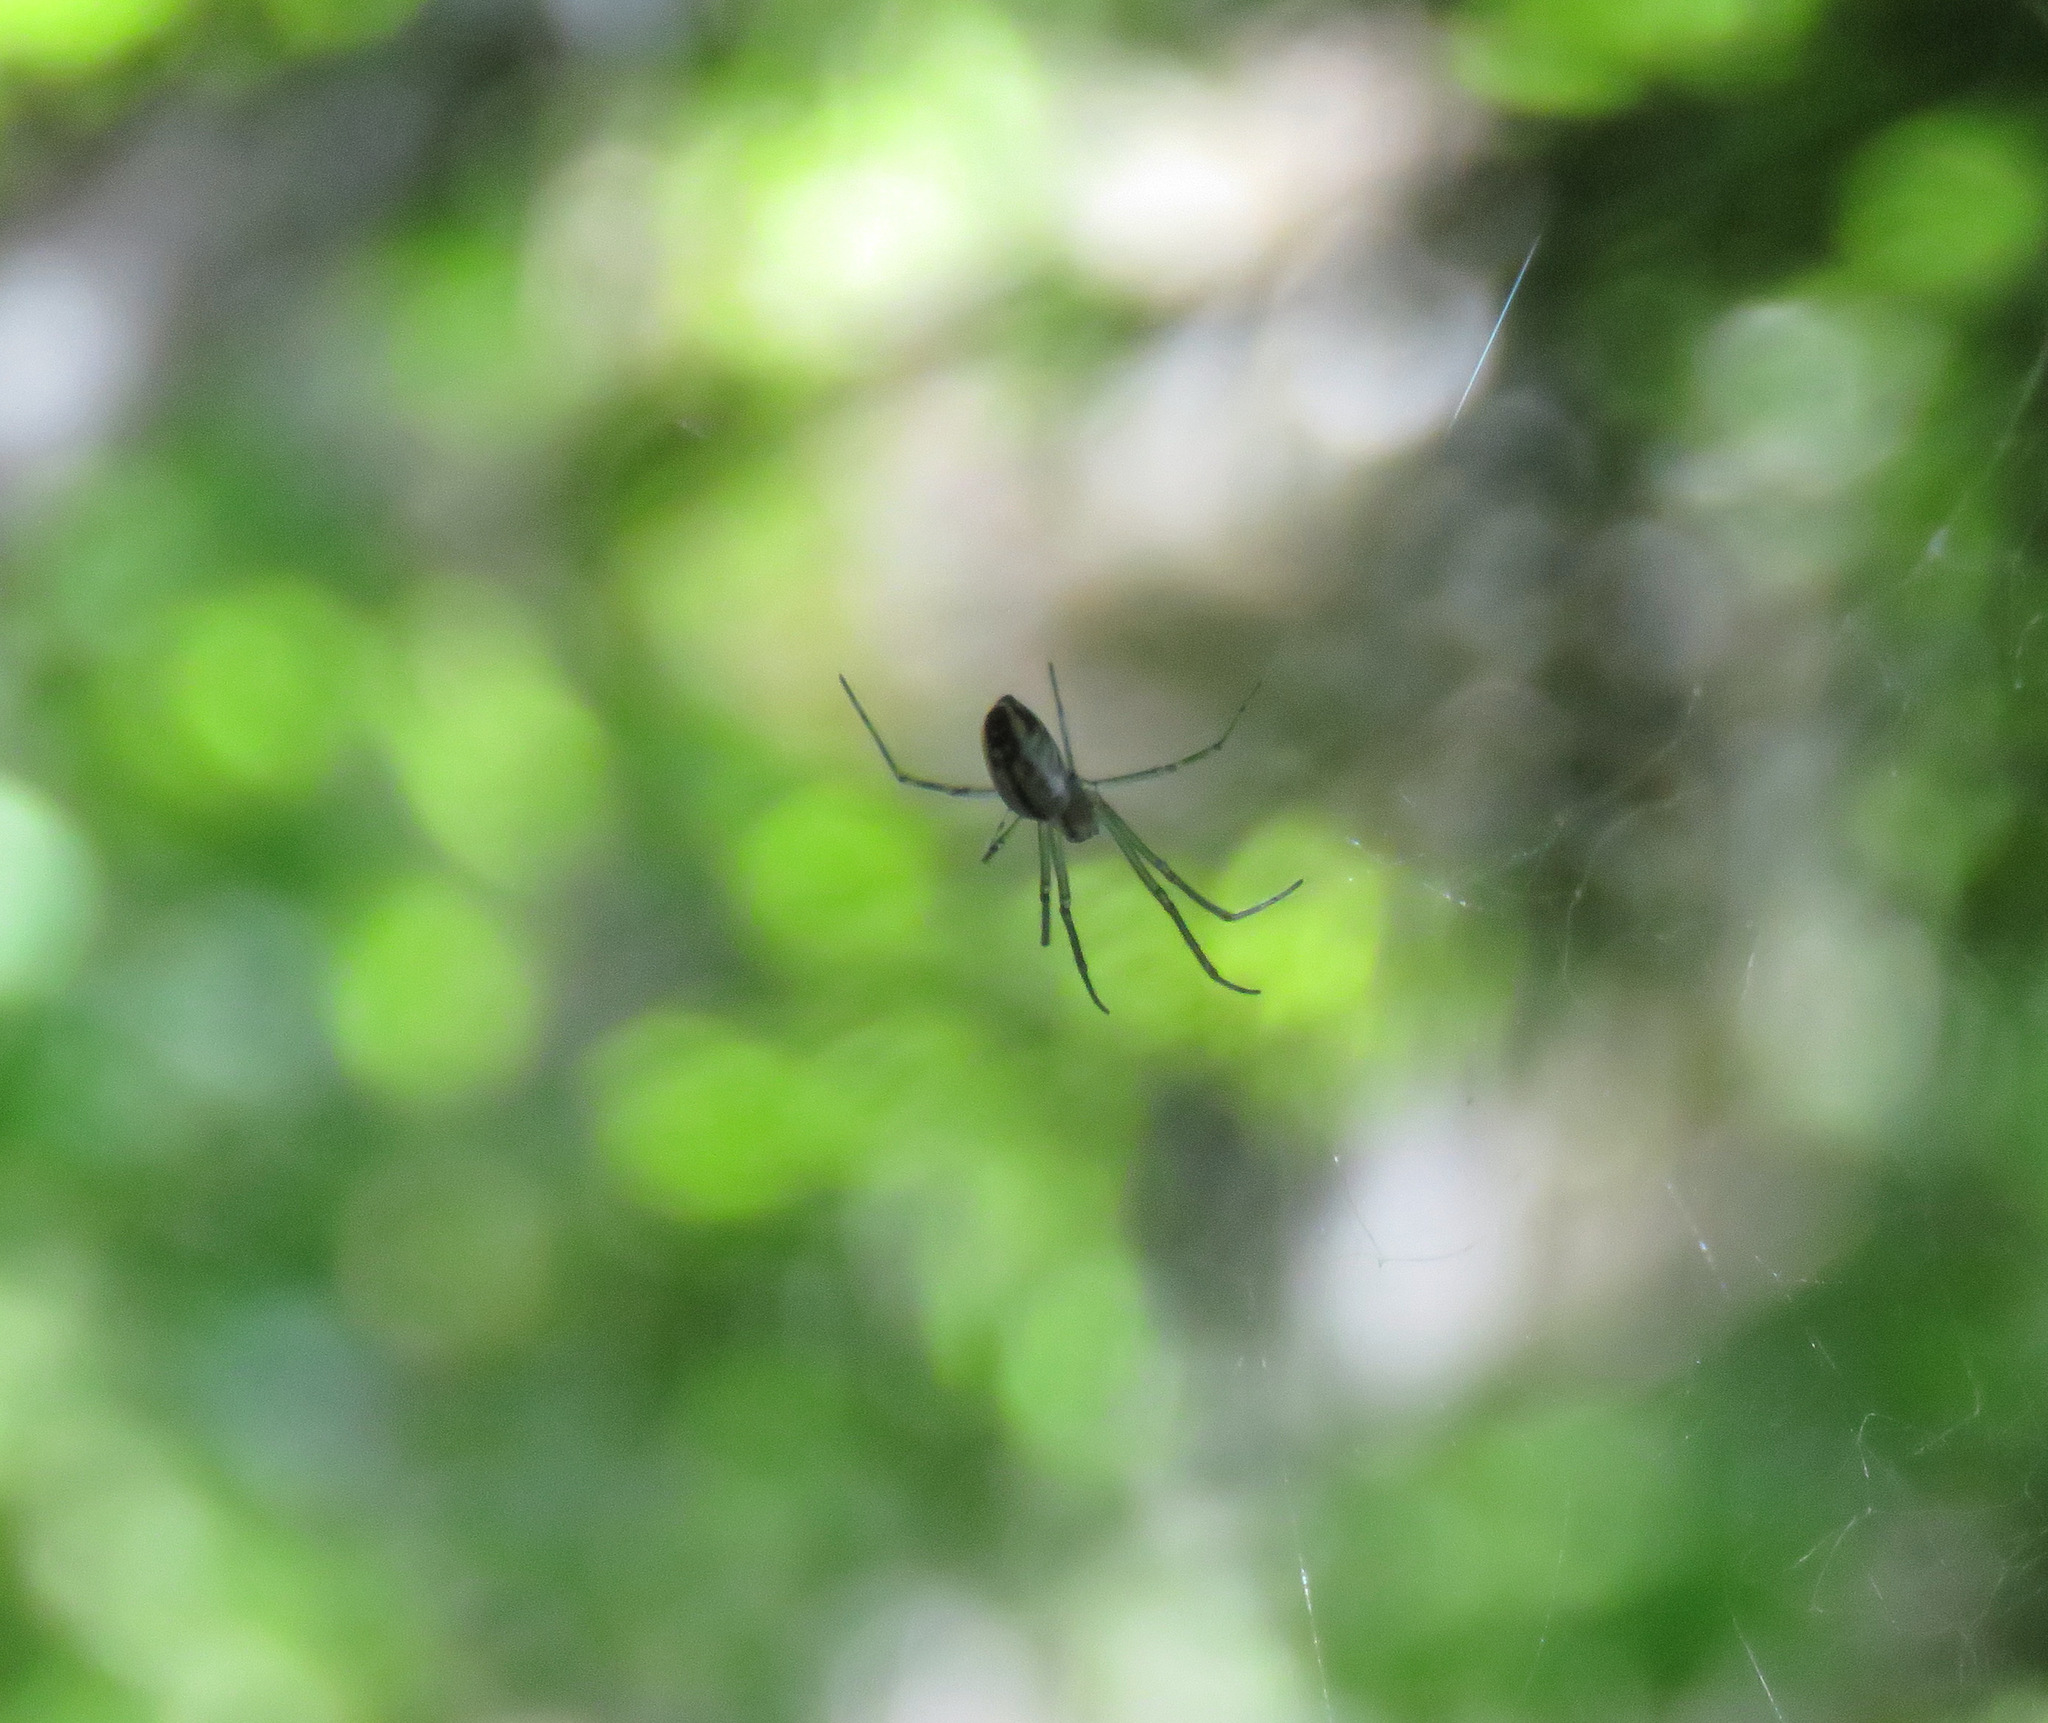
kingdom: Animalia
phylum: Arthropoda
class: Arachnida
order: Araneae
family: Linyphiidae
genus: Neriene
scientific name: Neriene litigiosa
